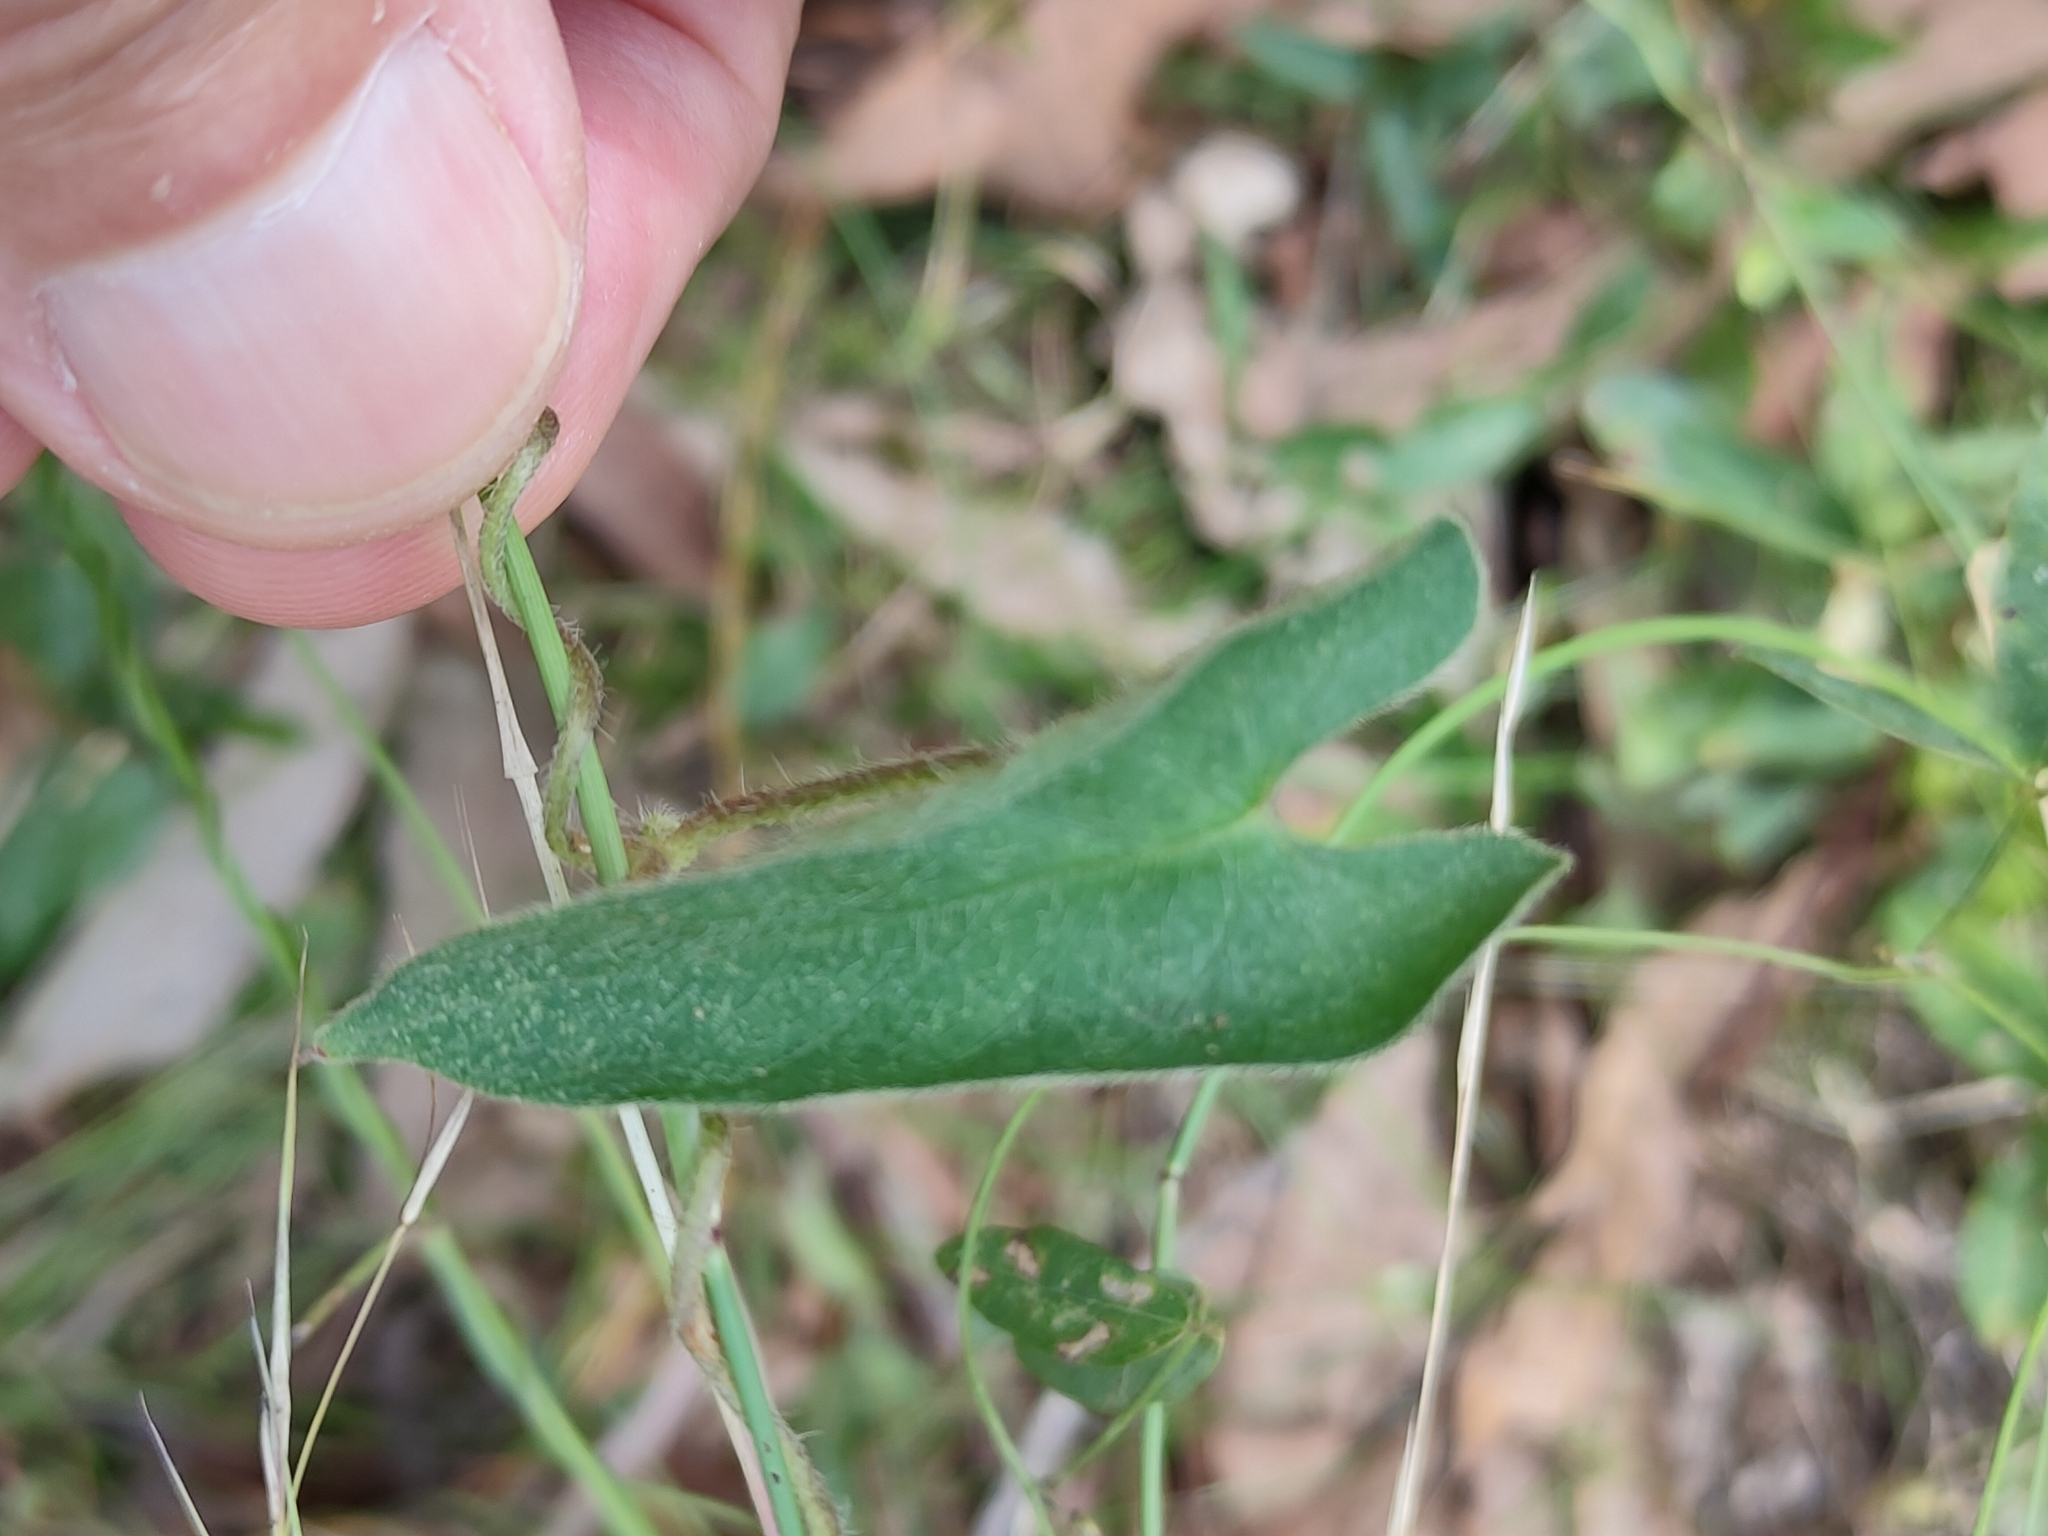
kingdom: Plantae
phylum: Tracheophyta
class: Magnoliopsida
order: Solanales
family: Convolvulaceae
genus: Ipomoea
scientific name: Ipomoea biflora
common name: Bellvine
